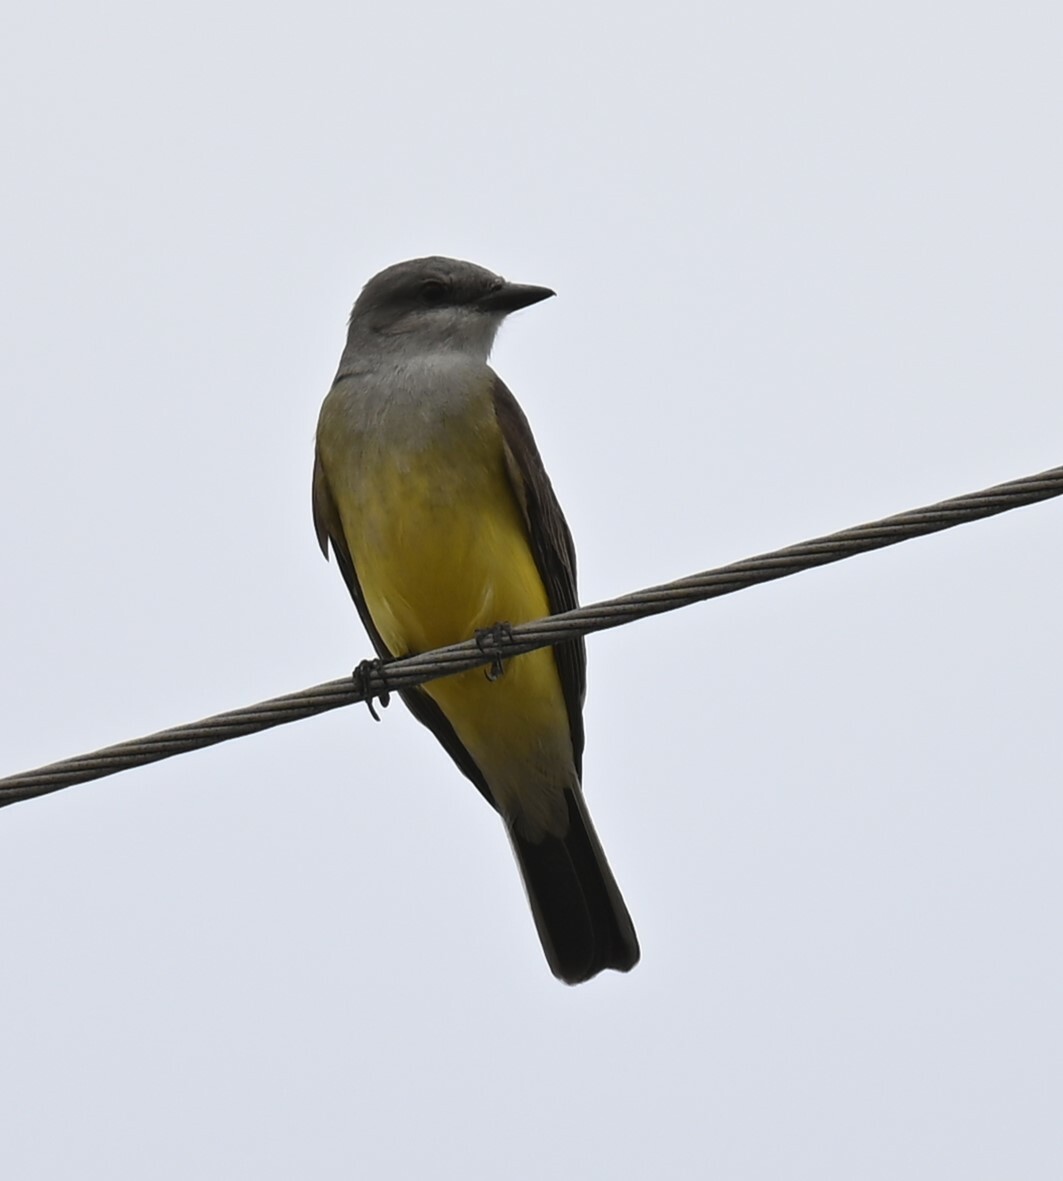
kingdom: Animalia
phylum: Chordata
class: Aves
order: Passeriformes
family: Tyrannidae
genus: Tyrannus
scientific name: Tyrannus verticalis
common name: Western kingbird
